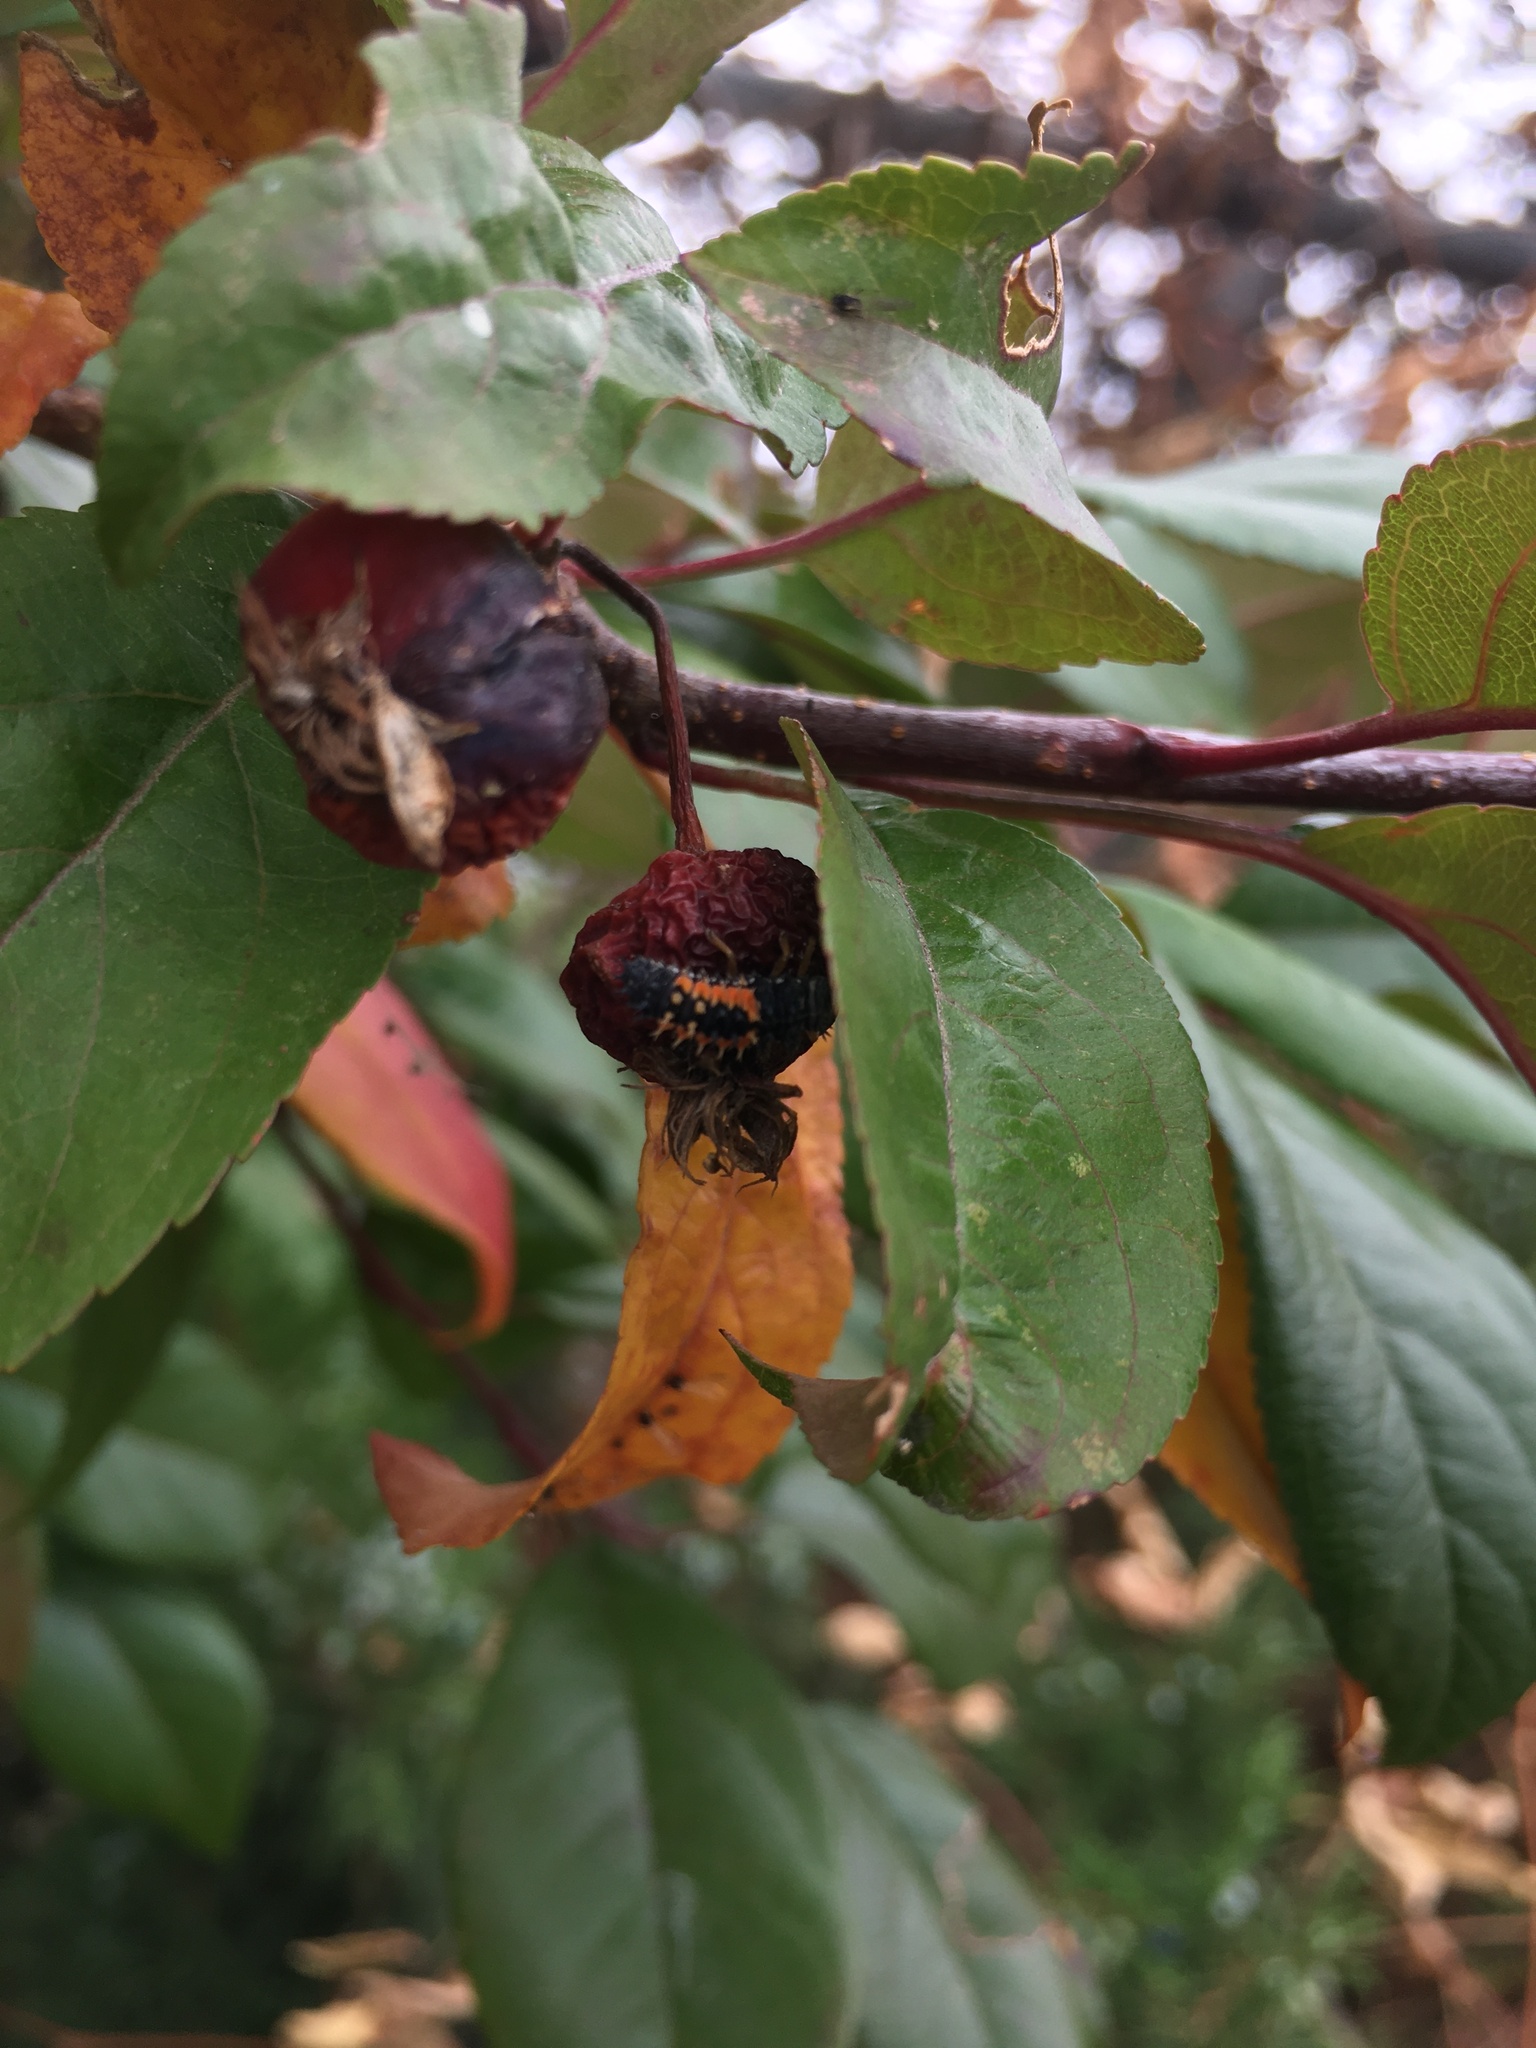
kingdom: Animalia
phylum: Arthropoda
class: Insecta
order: Coleoptera
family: Coccinellidae
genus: Harmonia
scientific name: Harmonia axyridis
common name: Harlequin ladybird
